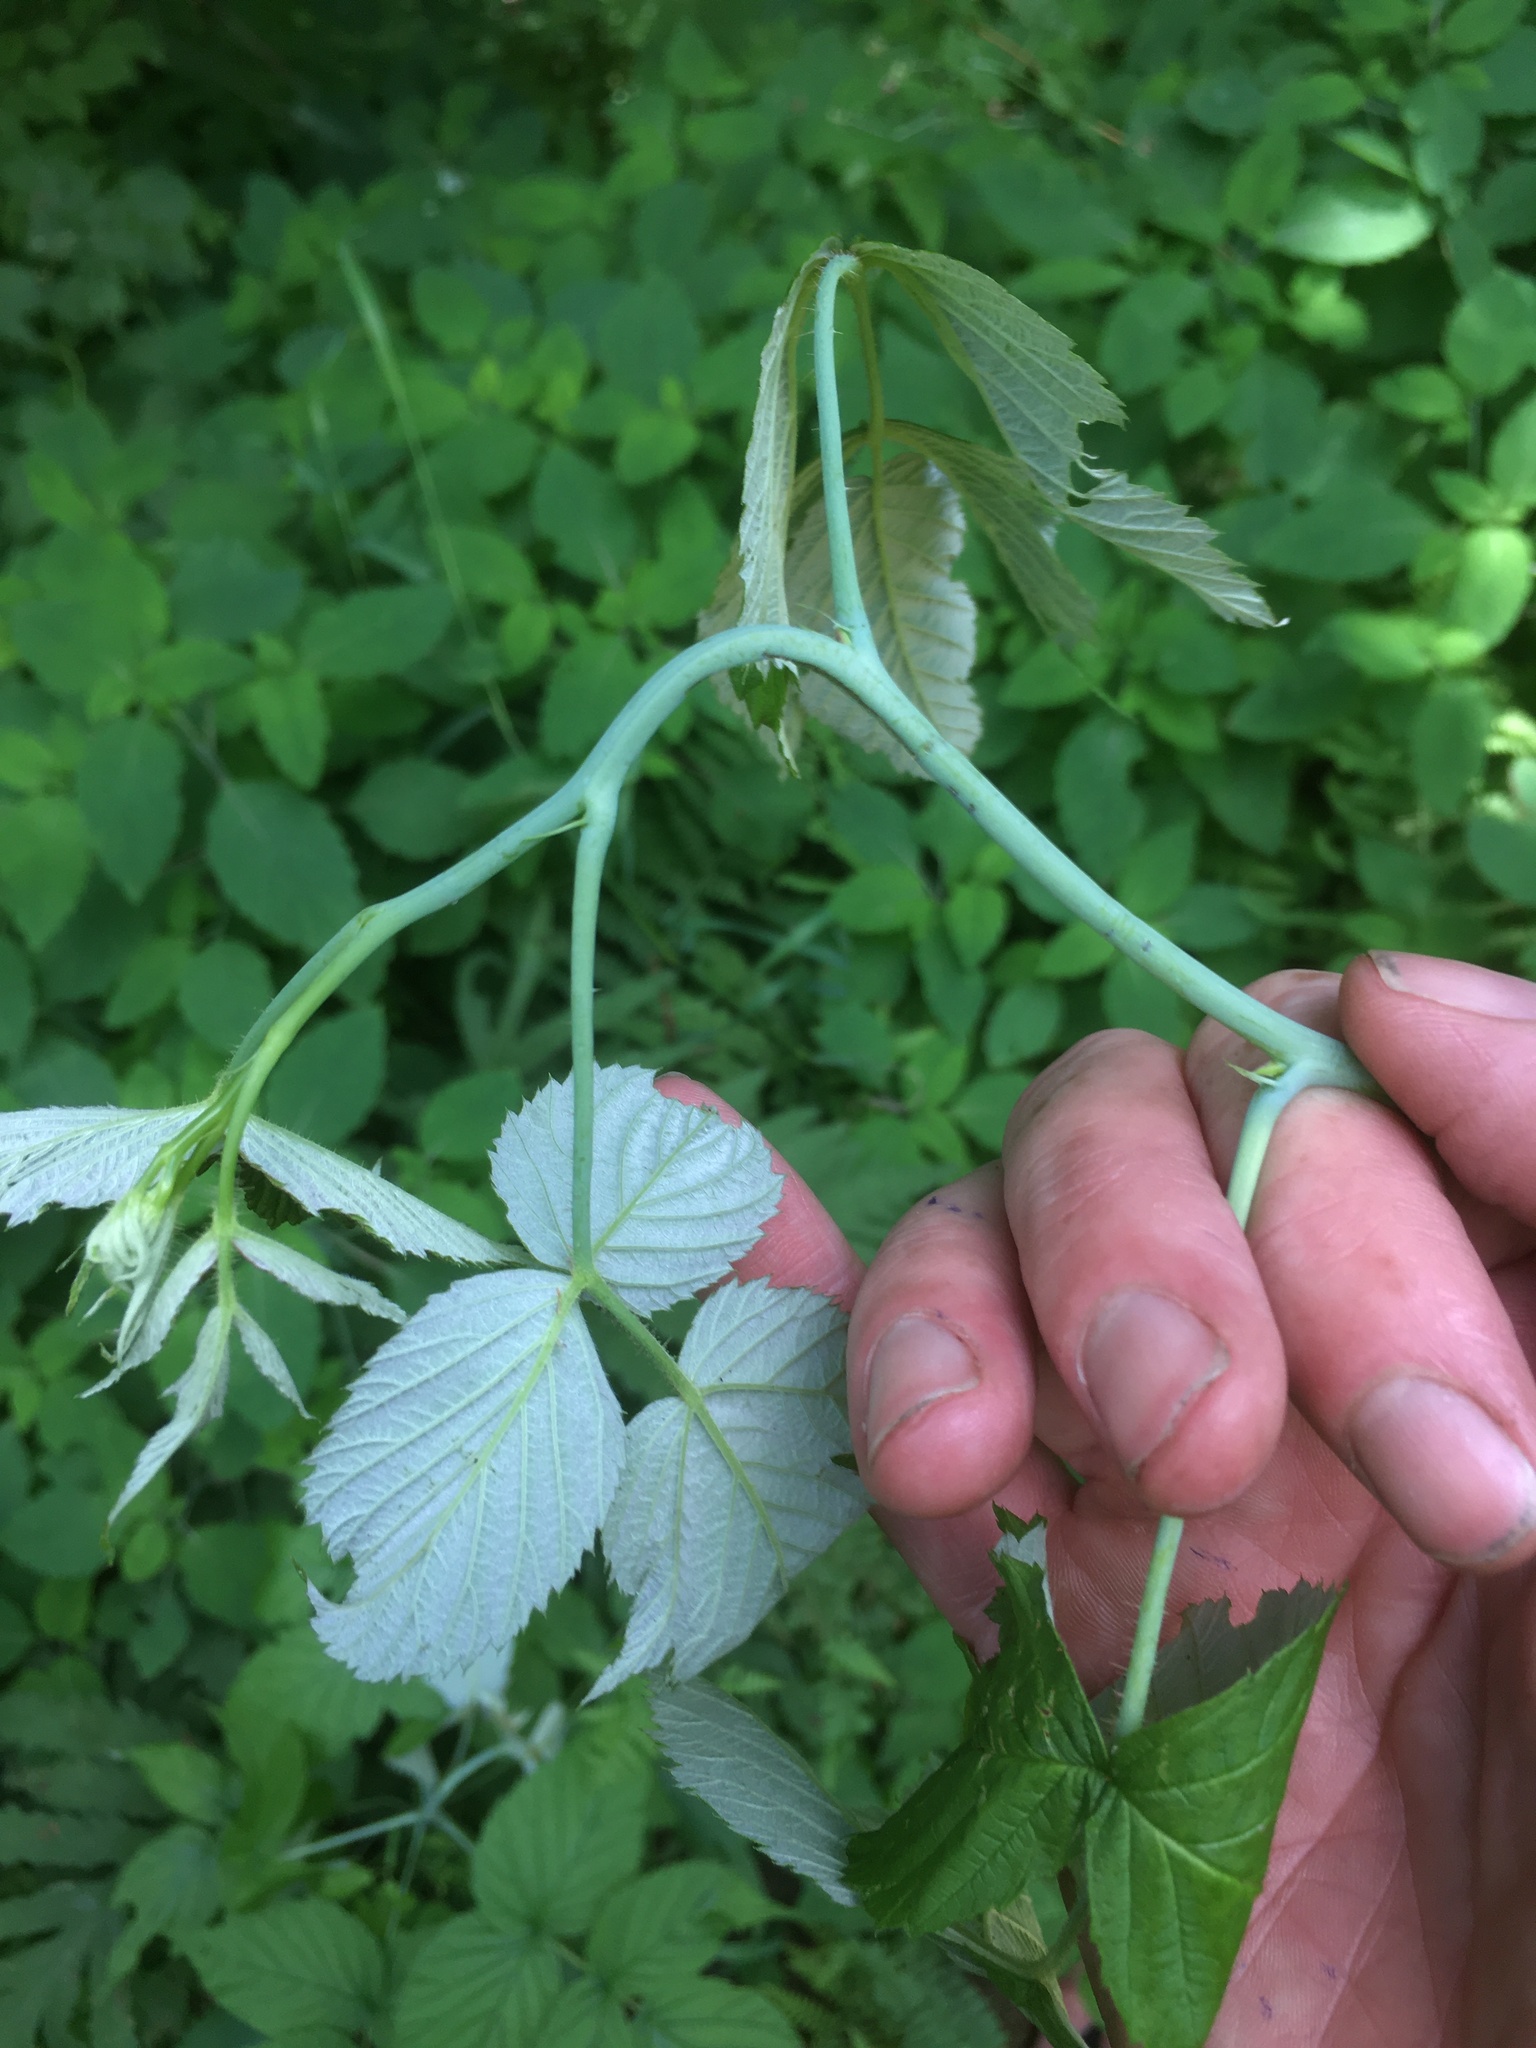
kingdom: Plantae
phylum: Tracheophyta
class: Magnoliopsida
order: Rosales
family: Rosaceae
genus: Rubus
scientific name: Rubus occidentalis
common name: Black raspberry
